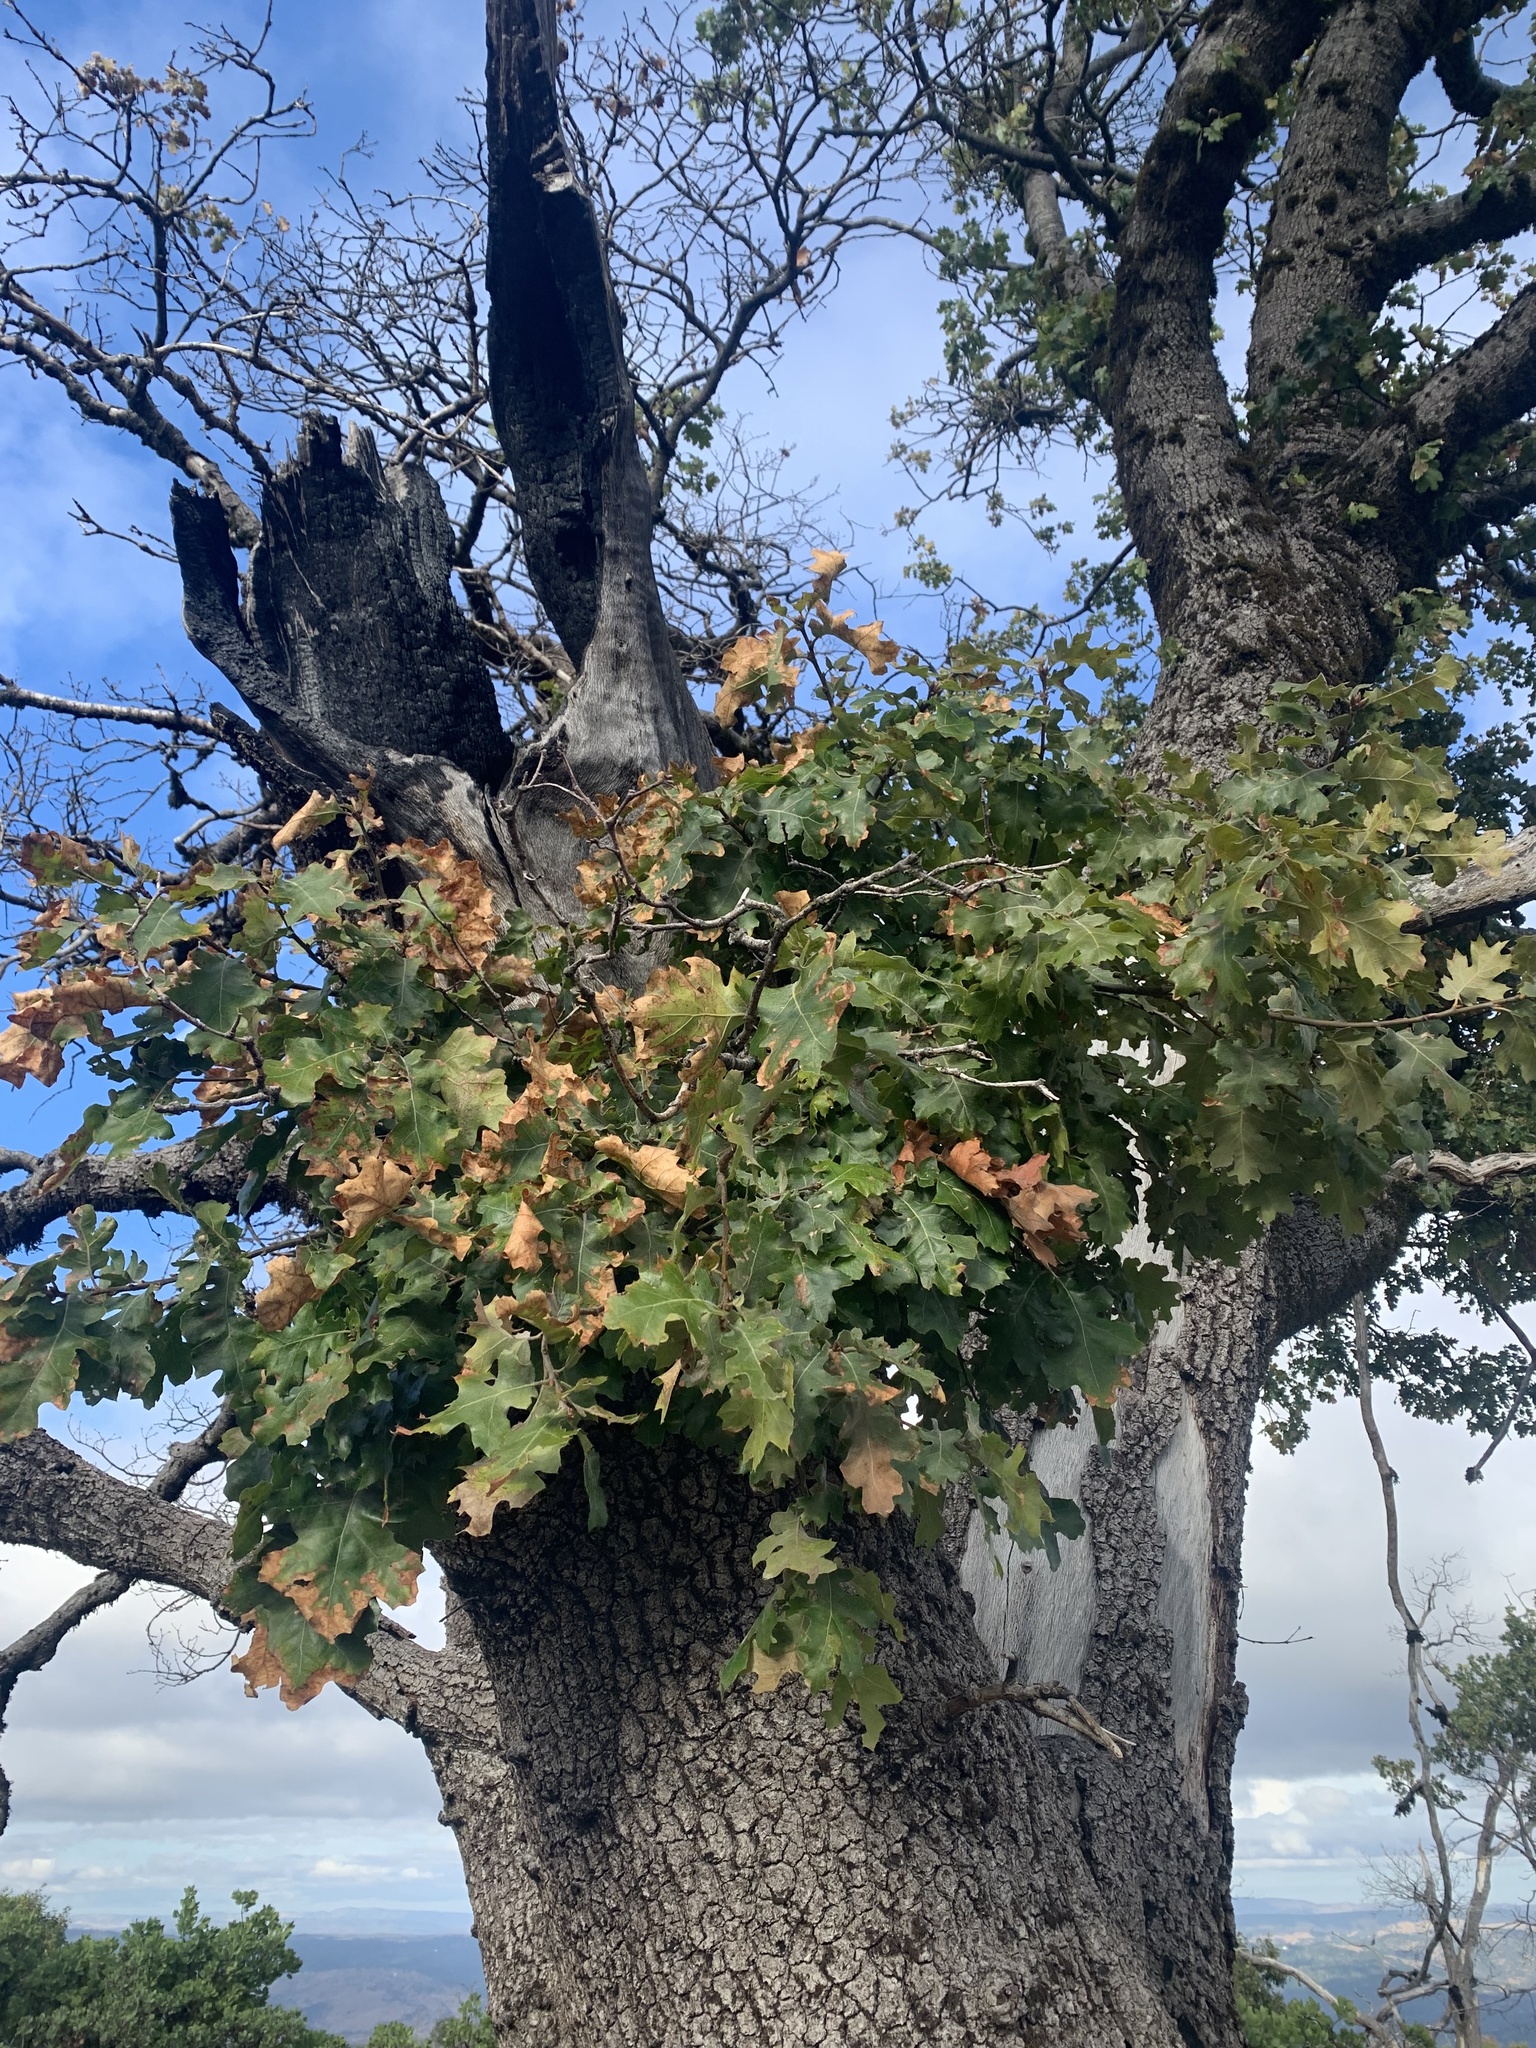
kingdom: Plantae
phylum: Tracheophyta
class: Magnoliopsida
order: Fagales
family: Fagaceae
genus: Quercus
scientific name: Quercus kelloggii
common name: California black oak
